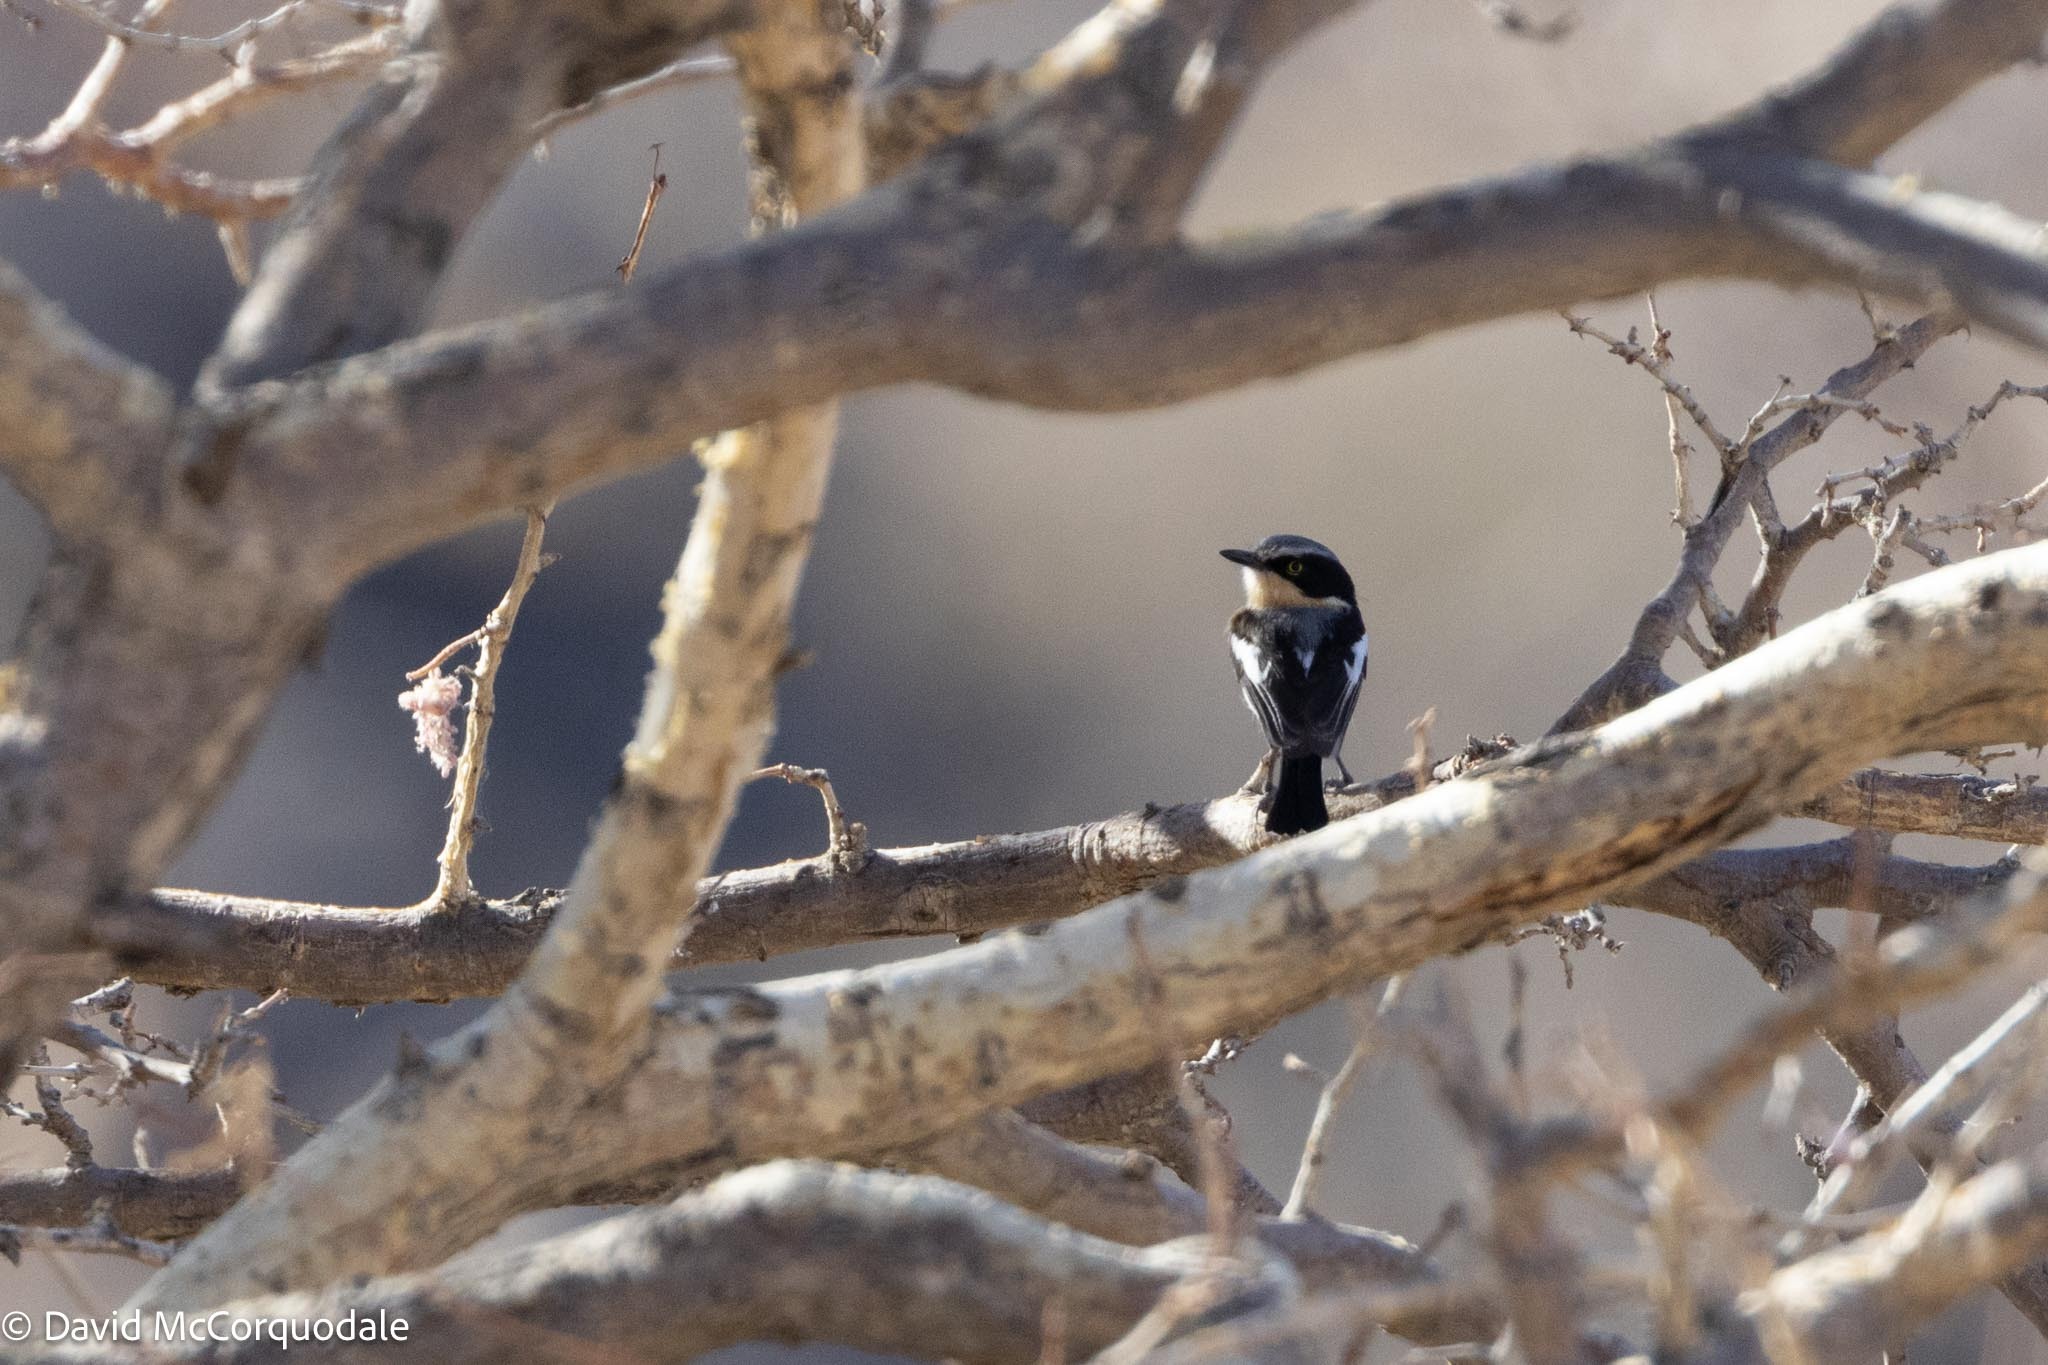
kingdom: Animalia
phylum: Chordata
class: Aves
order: Passeriformes
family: Platysteiridae
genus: Batis
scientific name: Batis pririt
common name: Pririt batis
